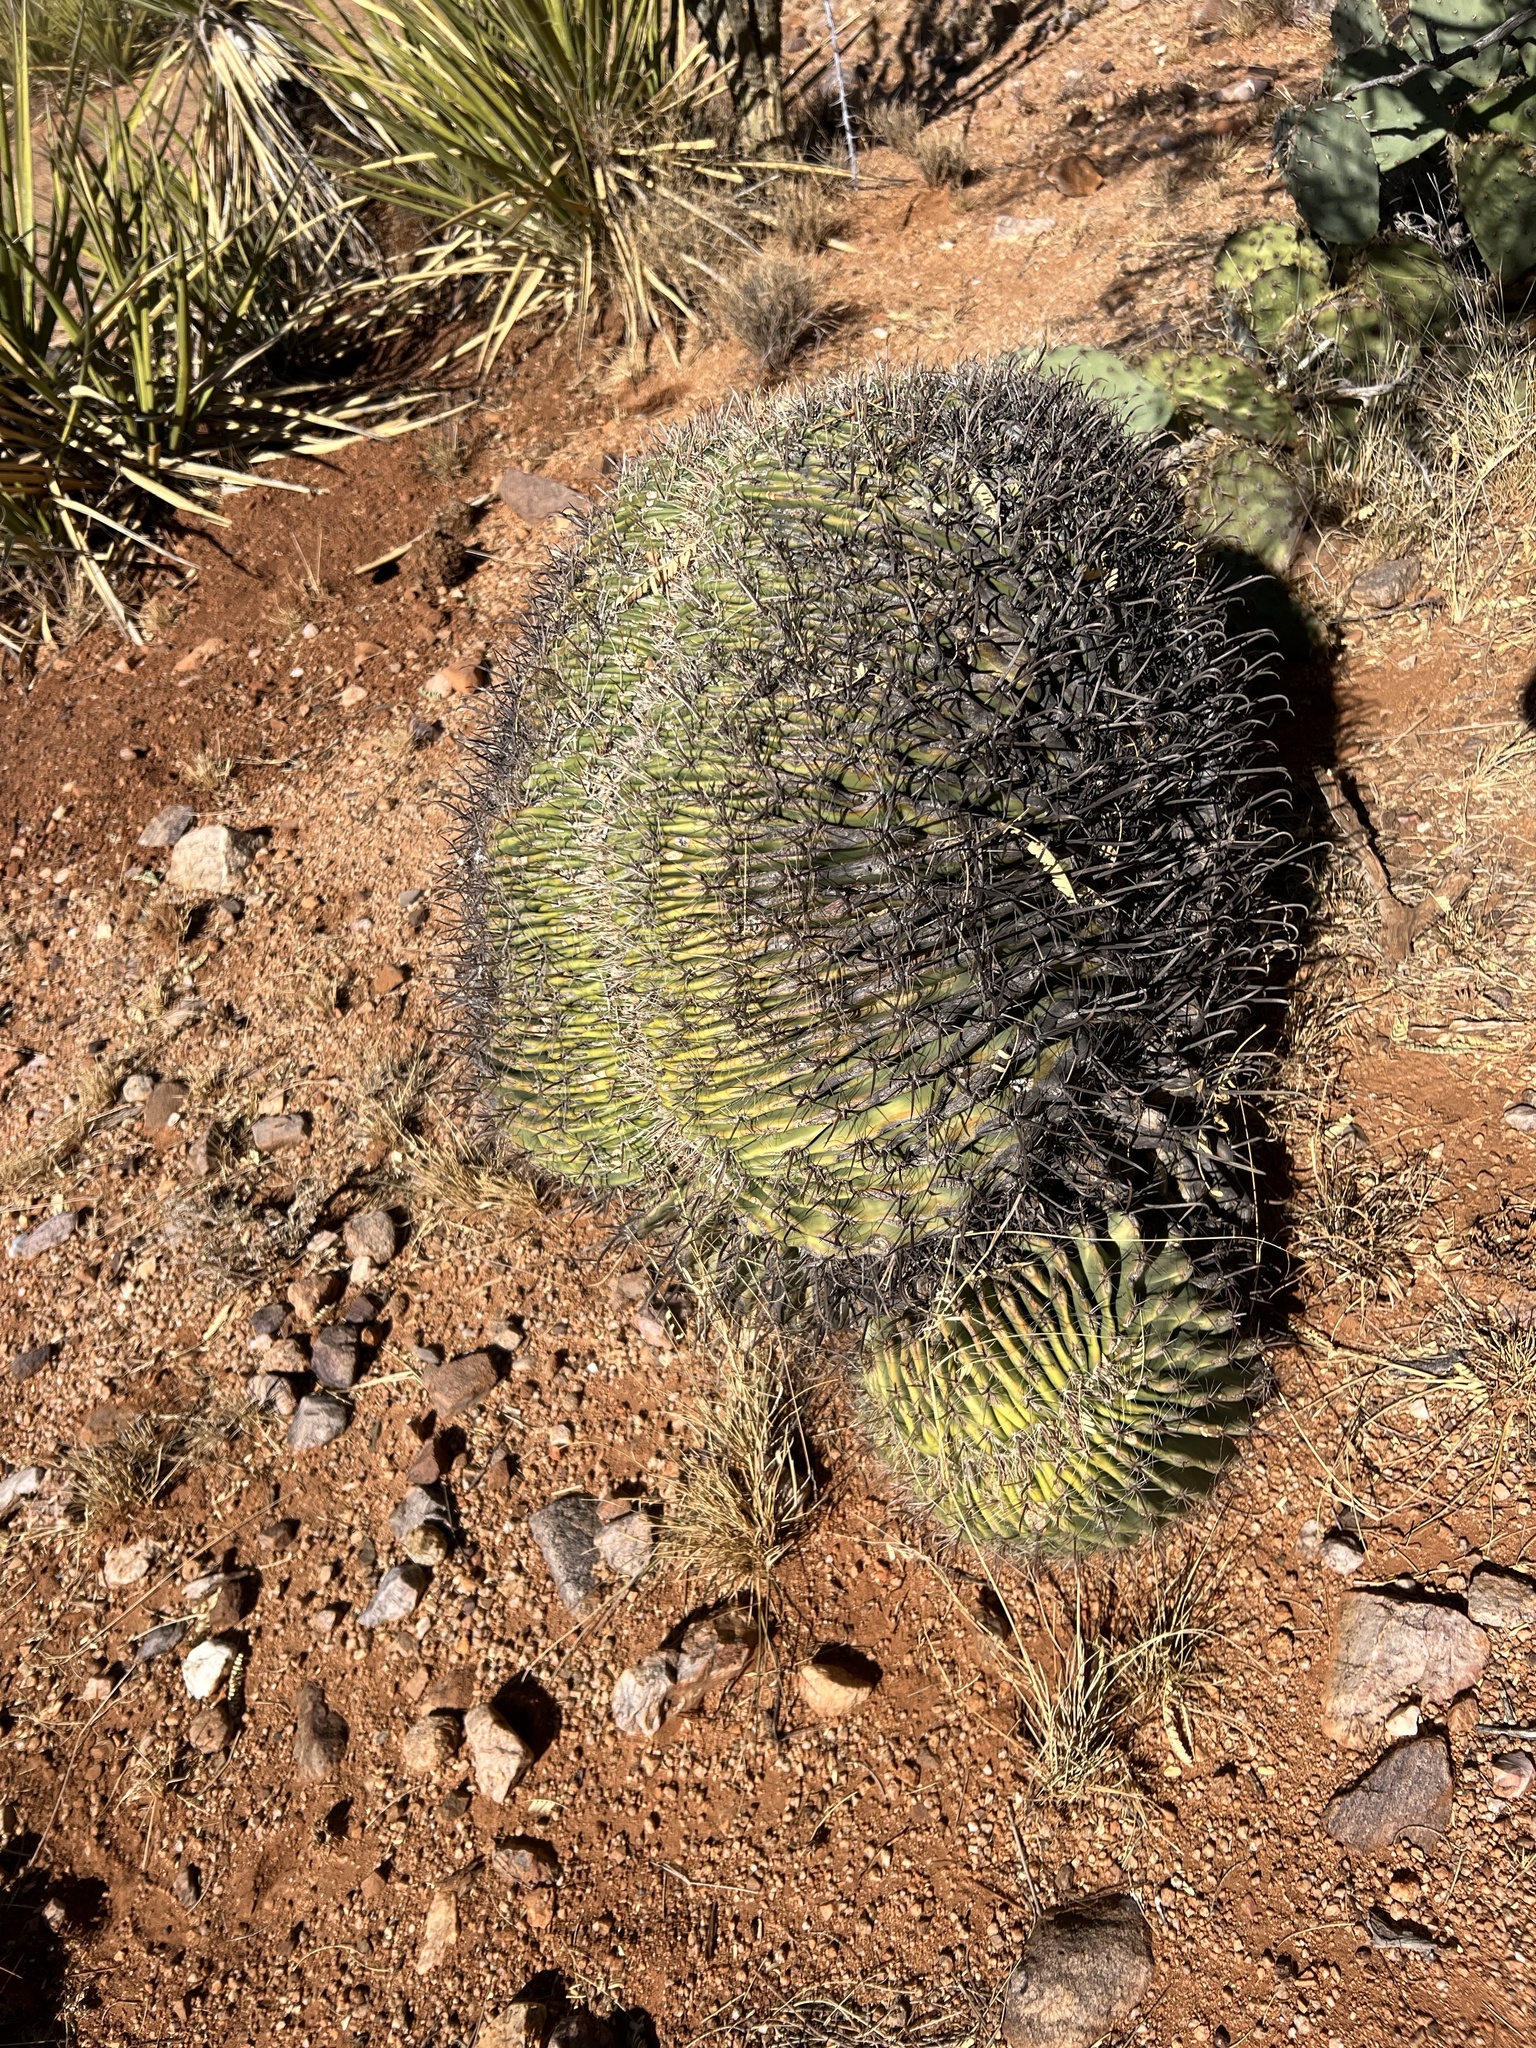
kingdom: Plantae
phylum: Tracheophyta
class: Magnoliopsida
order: Caryophyllales
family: Cactaceae
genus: Ferocactus
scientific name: Ferocactus wislizeni
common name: Candy barrel cactus
